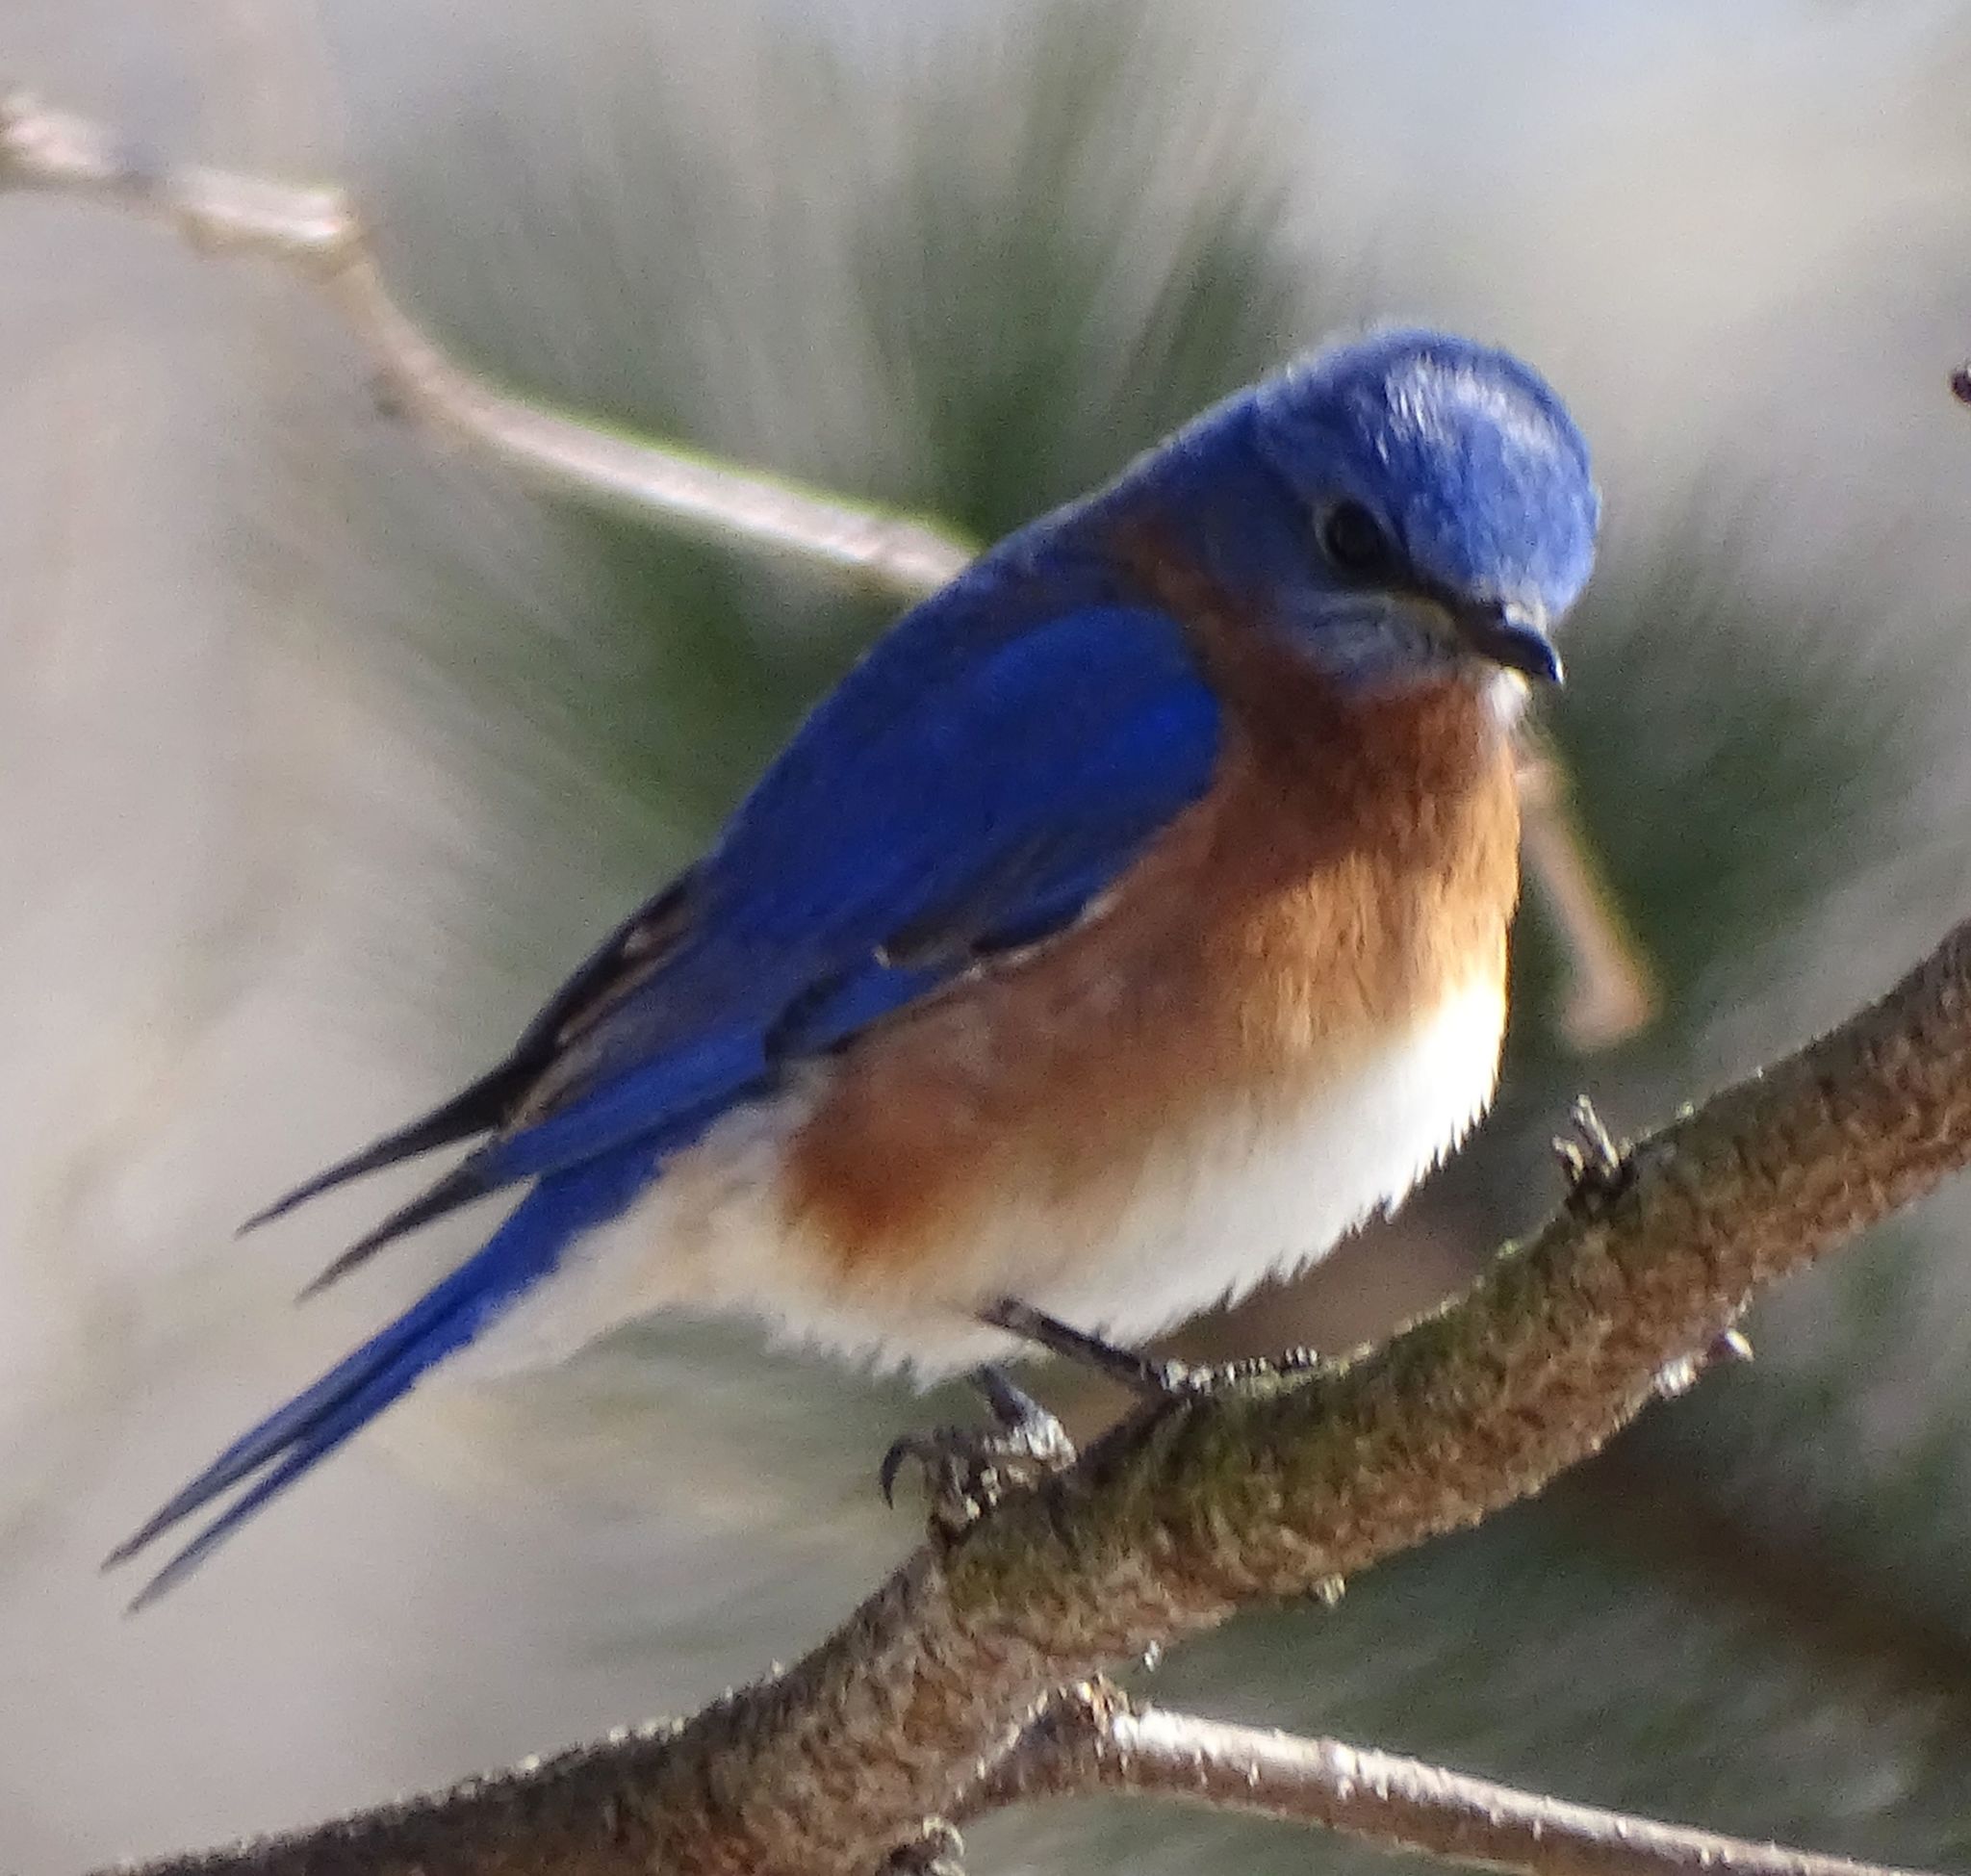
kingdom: Animalia
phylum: Chordata
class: Aves
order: Passeriformes
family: Turdidae
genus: Sialia
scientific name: Sialia sialis
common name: Eastern bluebird
